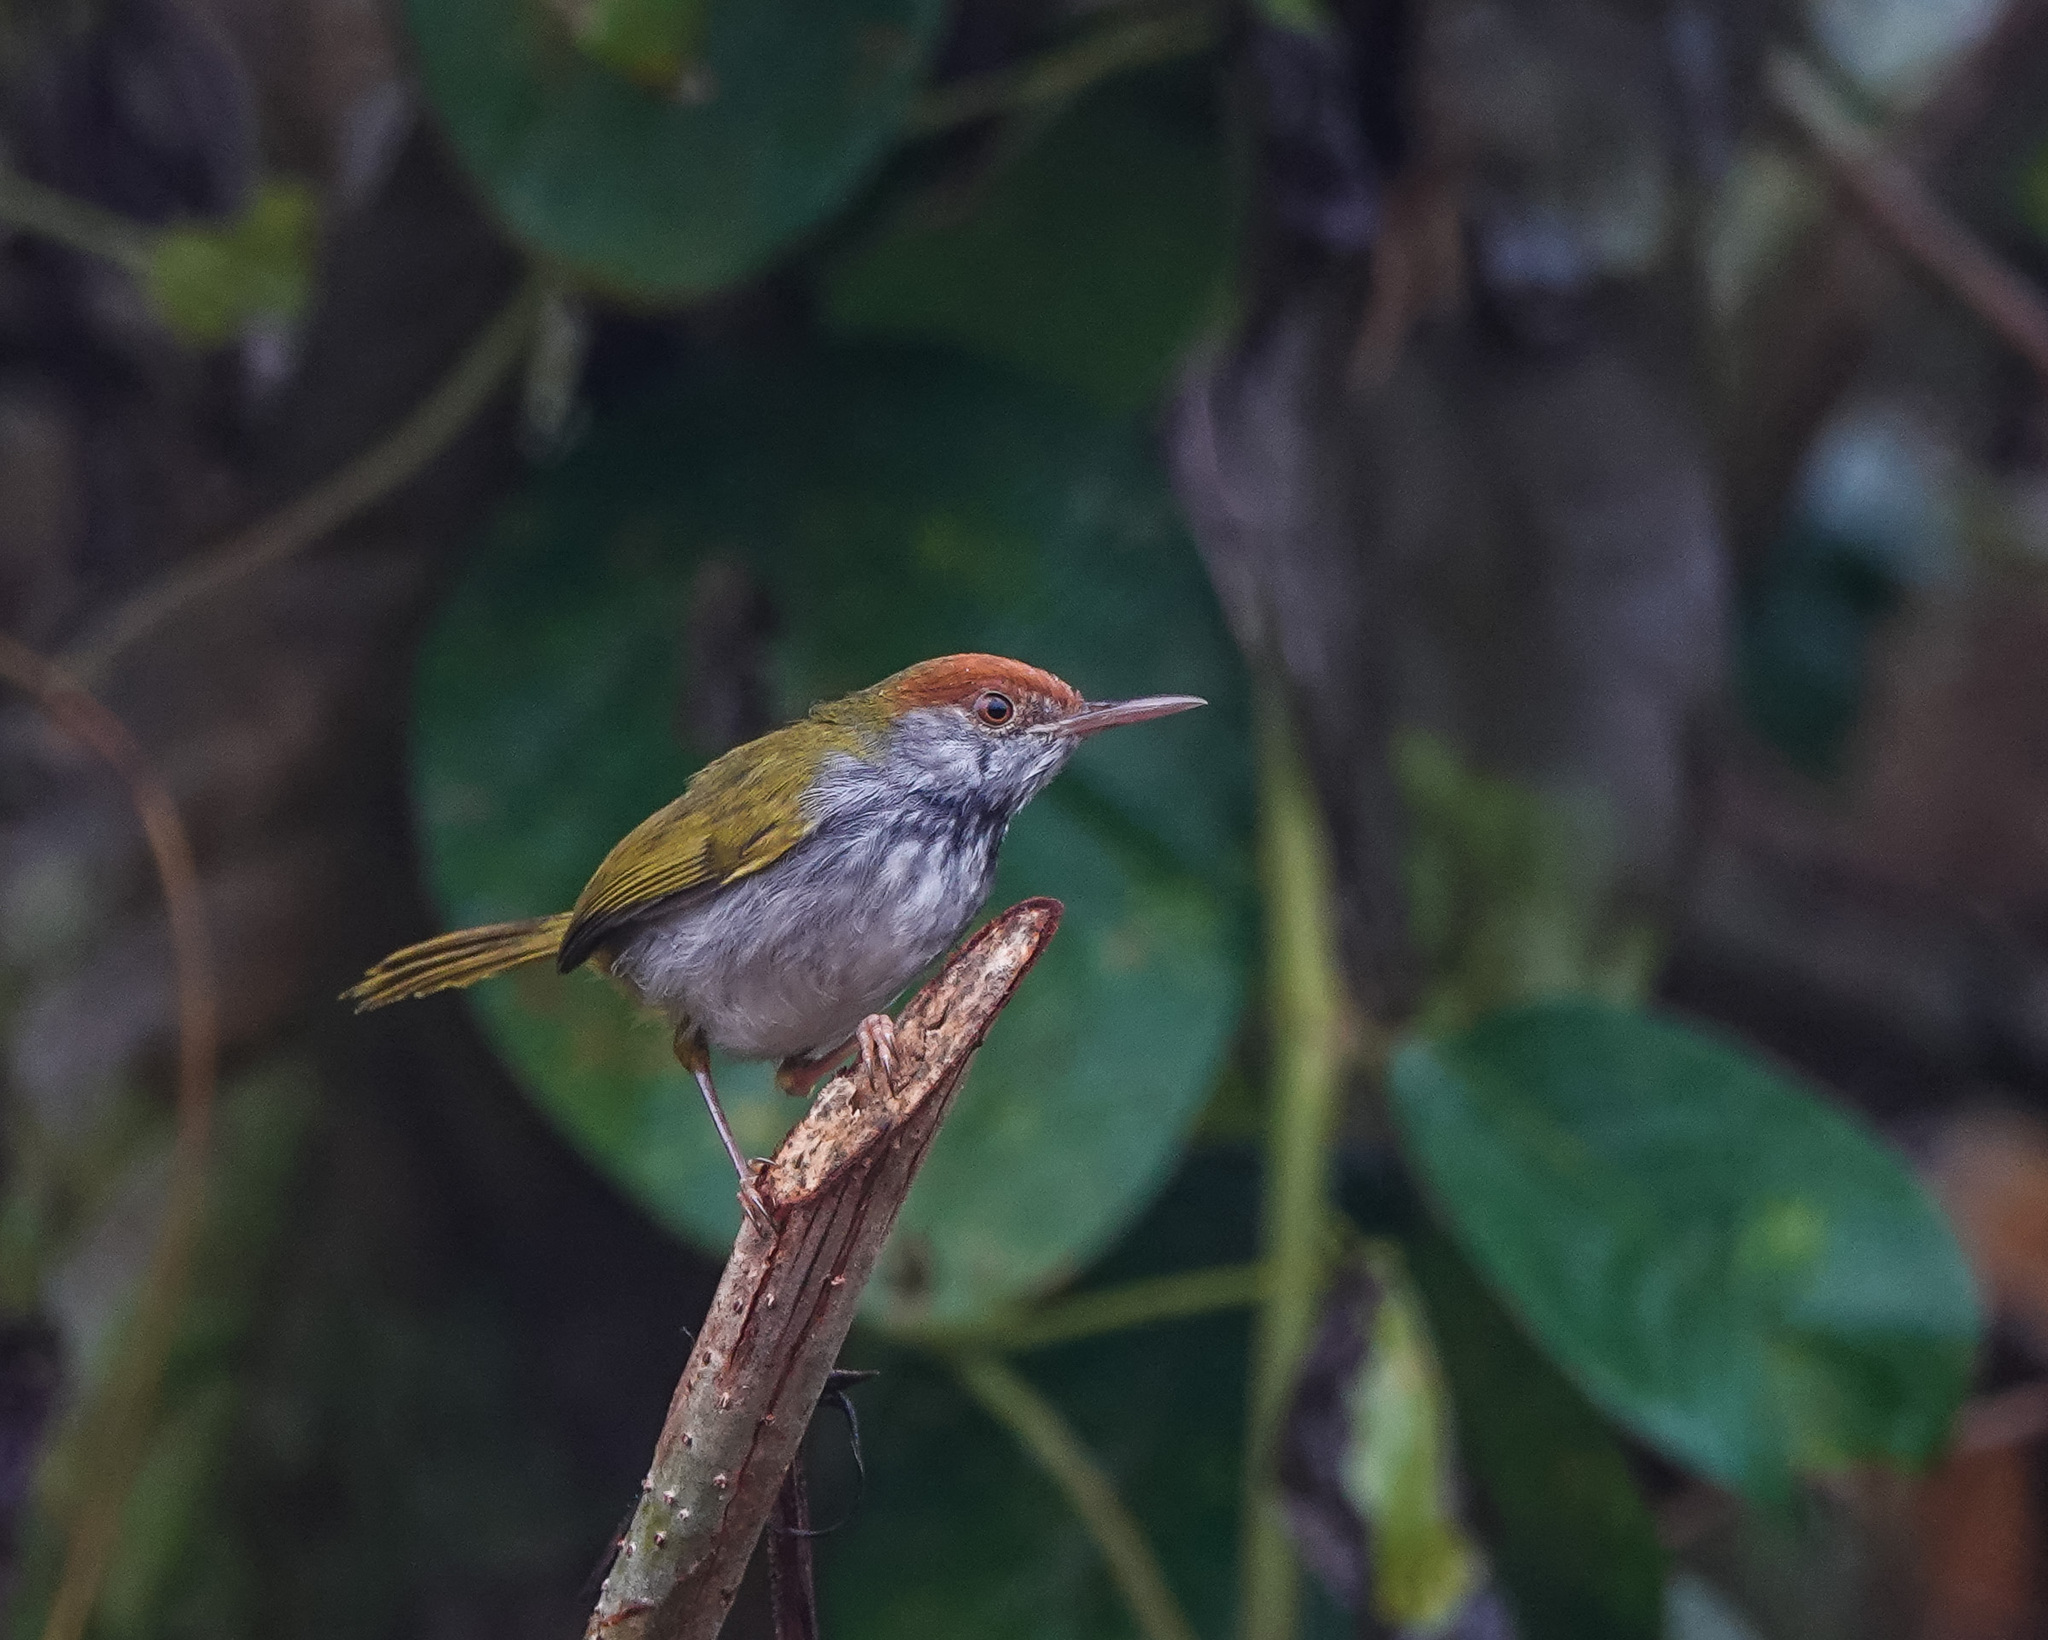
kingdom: Animalia
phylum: Chordata
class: Aves
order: Passeriformes
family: Cisticolidae
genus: Orthotomus
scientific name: Orthotomus atrogularis
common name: Dark-necked tailorbird
